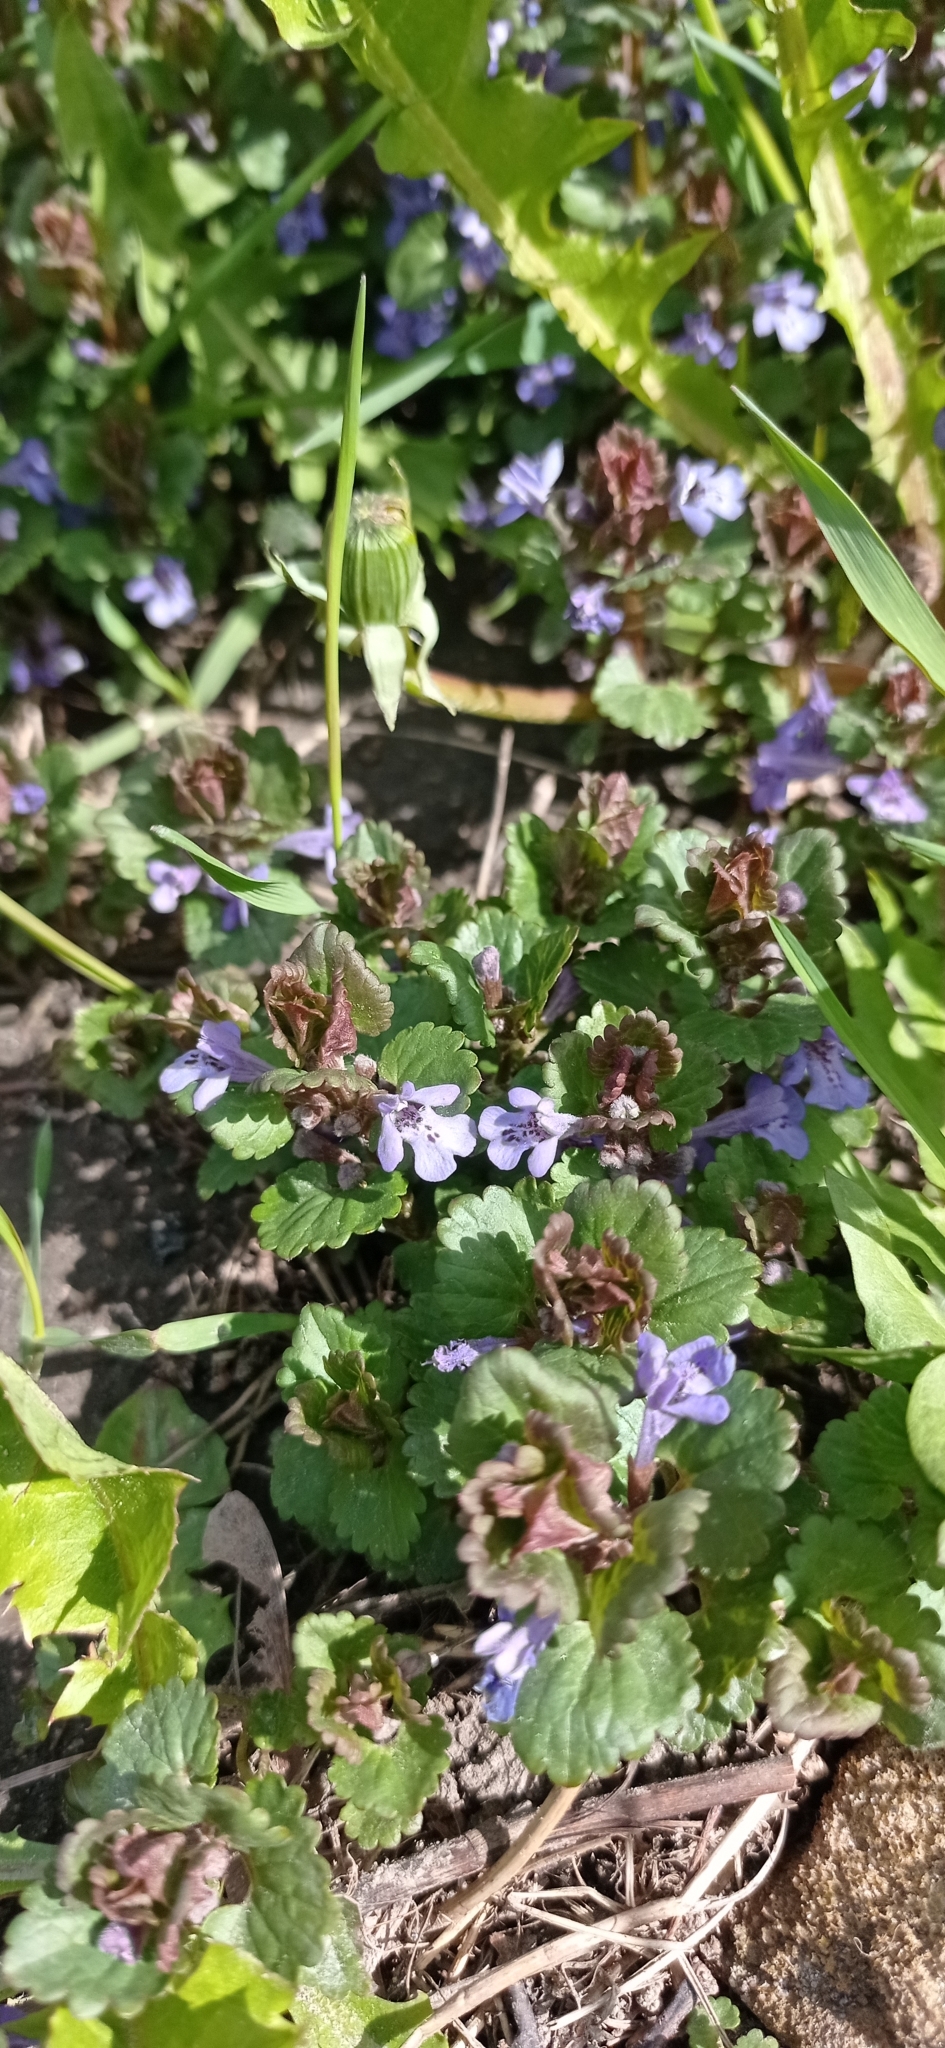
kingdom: Plantae
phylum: Tracheophyta
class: Magnoliopsida
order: Lamiales
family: Lamiaceae
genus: Glechoma
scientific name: Glechoma hederacea
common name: Ground ivy
